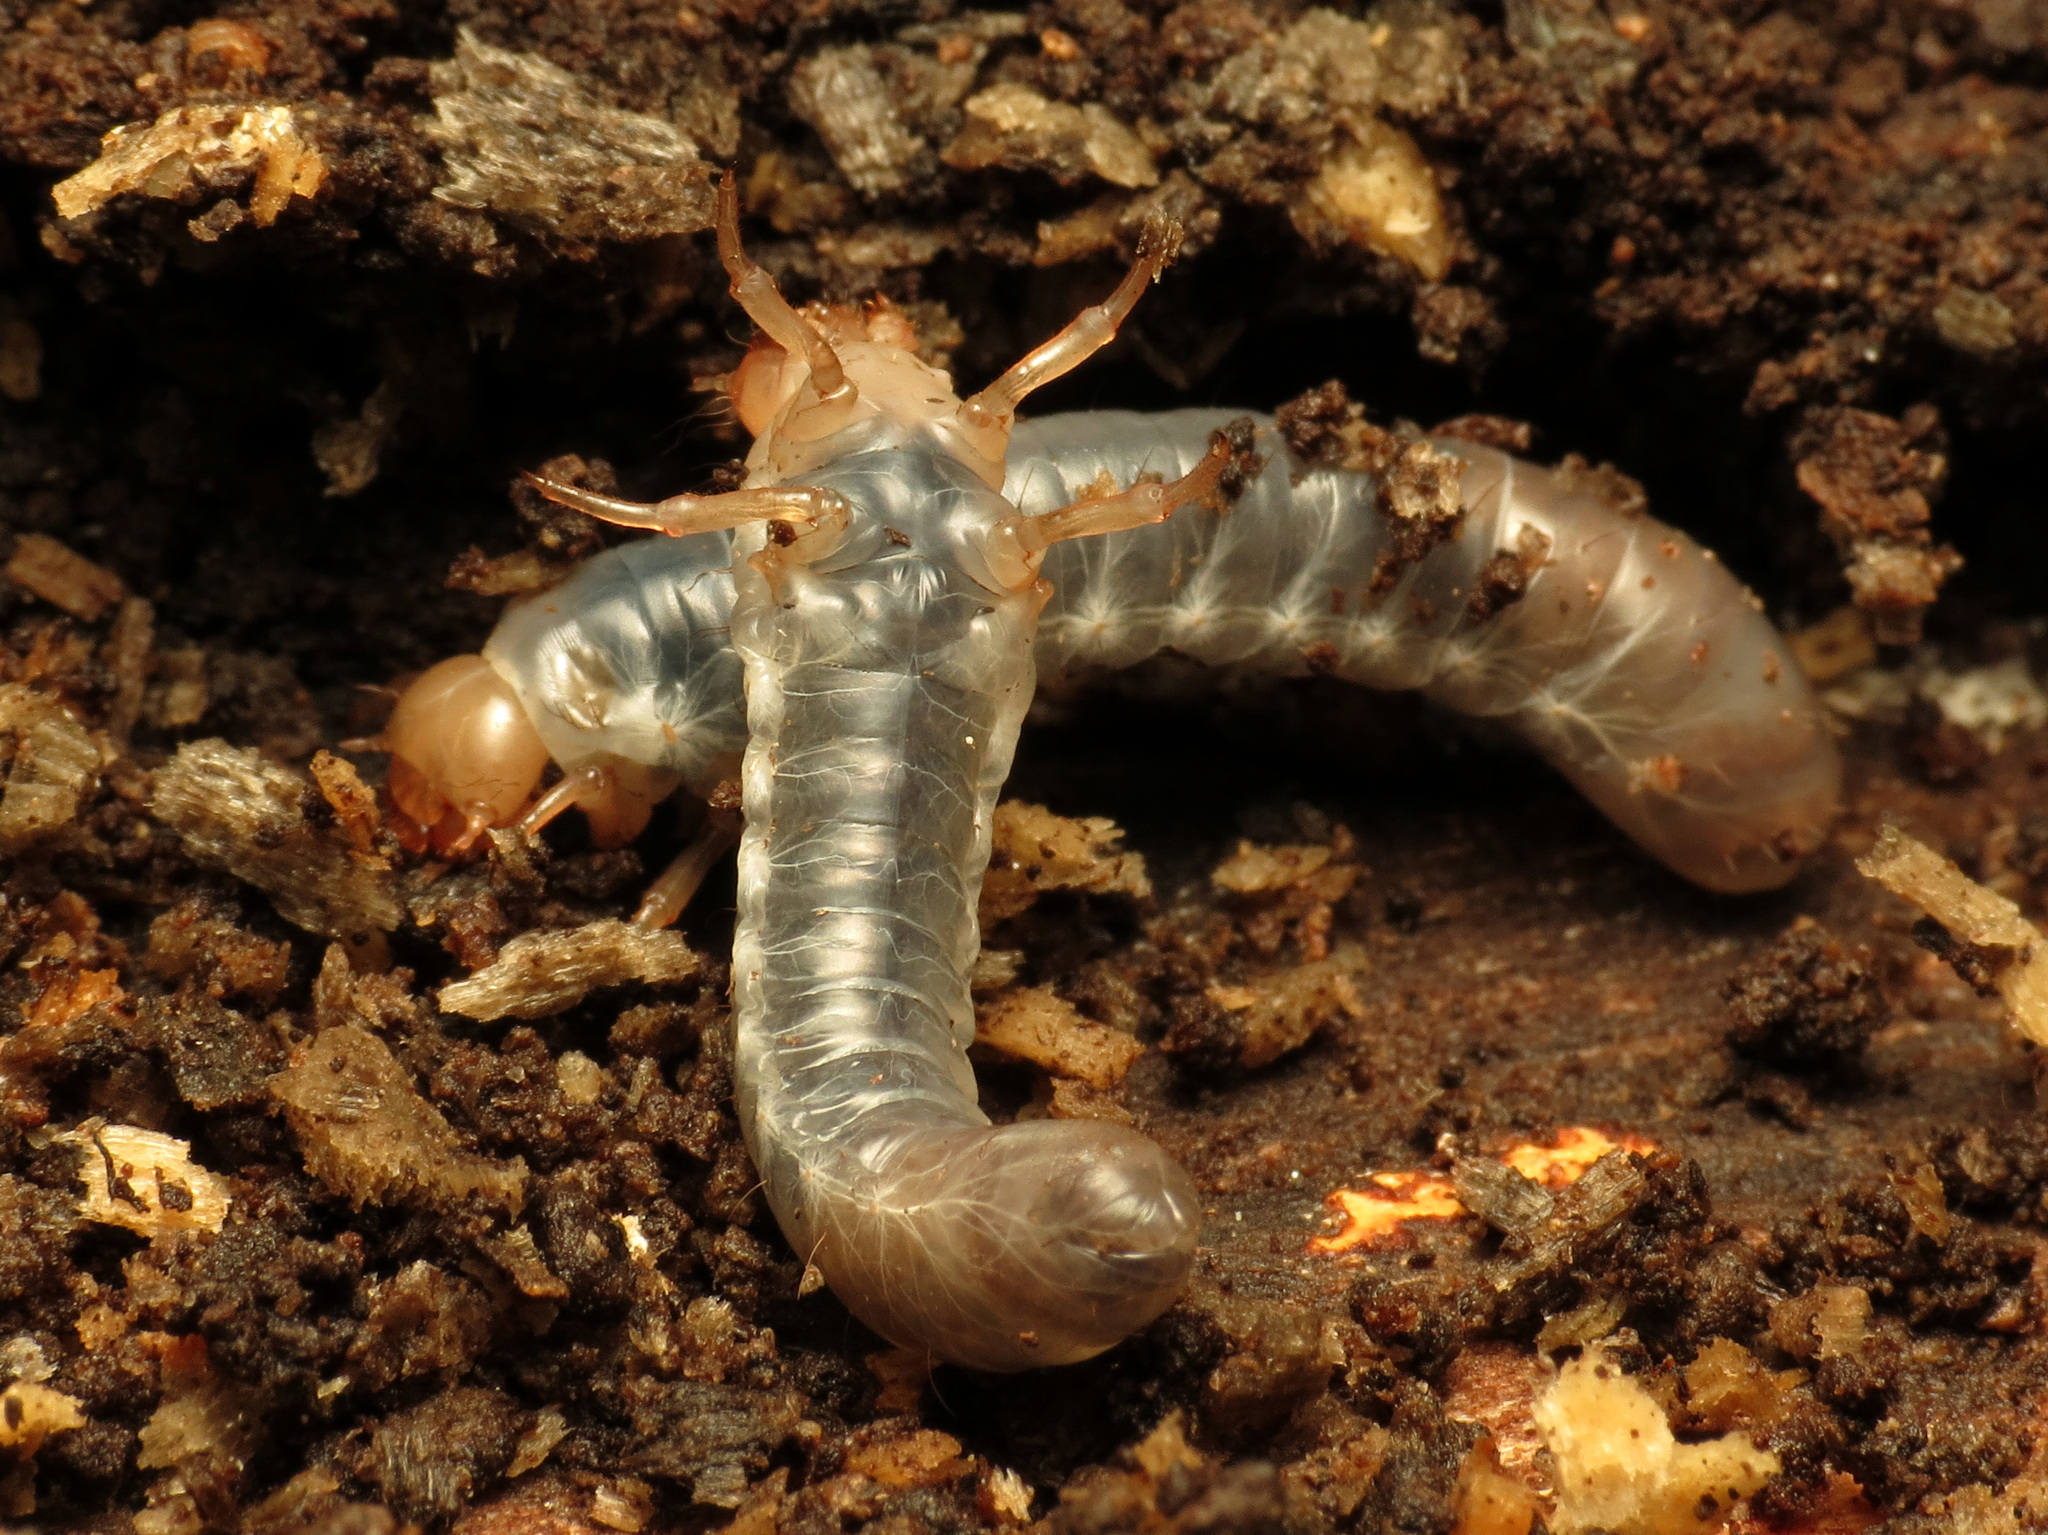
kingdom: Animalia
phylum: Arthropoda
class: Insecta
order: Coleoptera
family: Passalidae
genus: Odontotaenius
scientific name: Odontotaenius disjunctus
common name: Patent leather beetle
